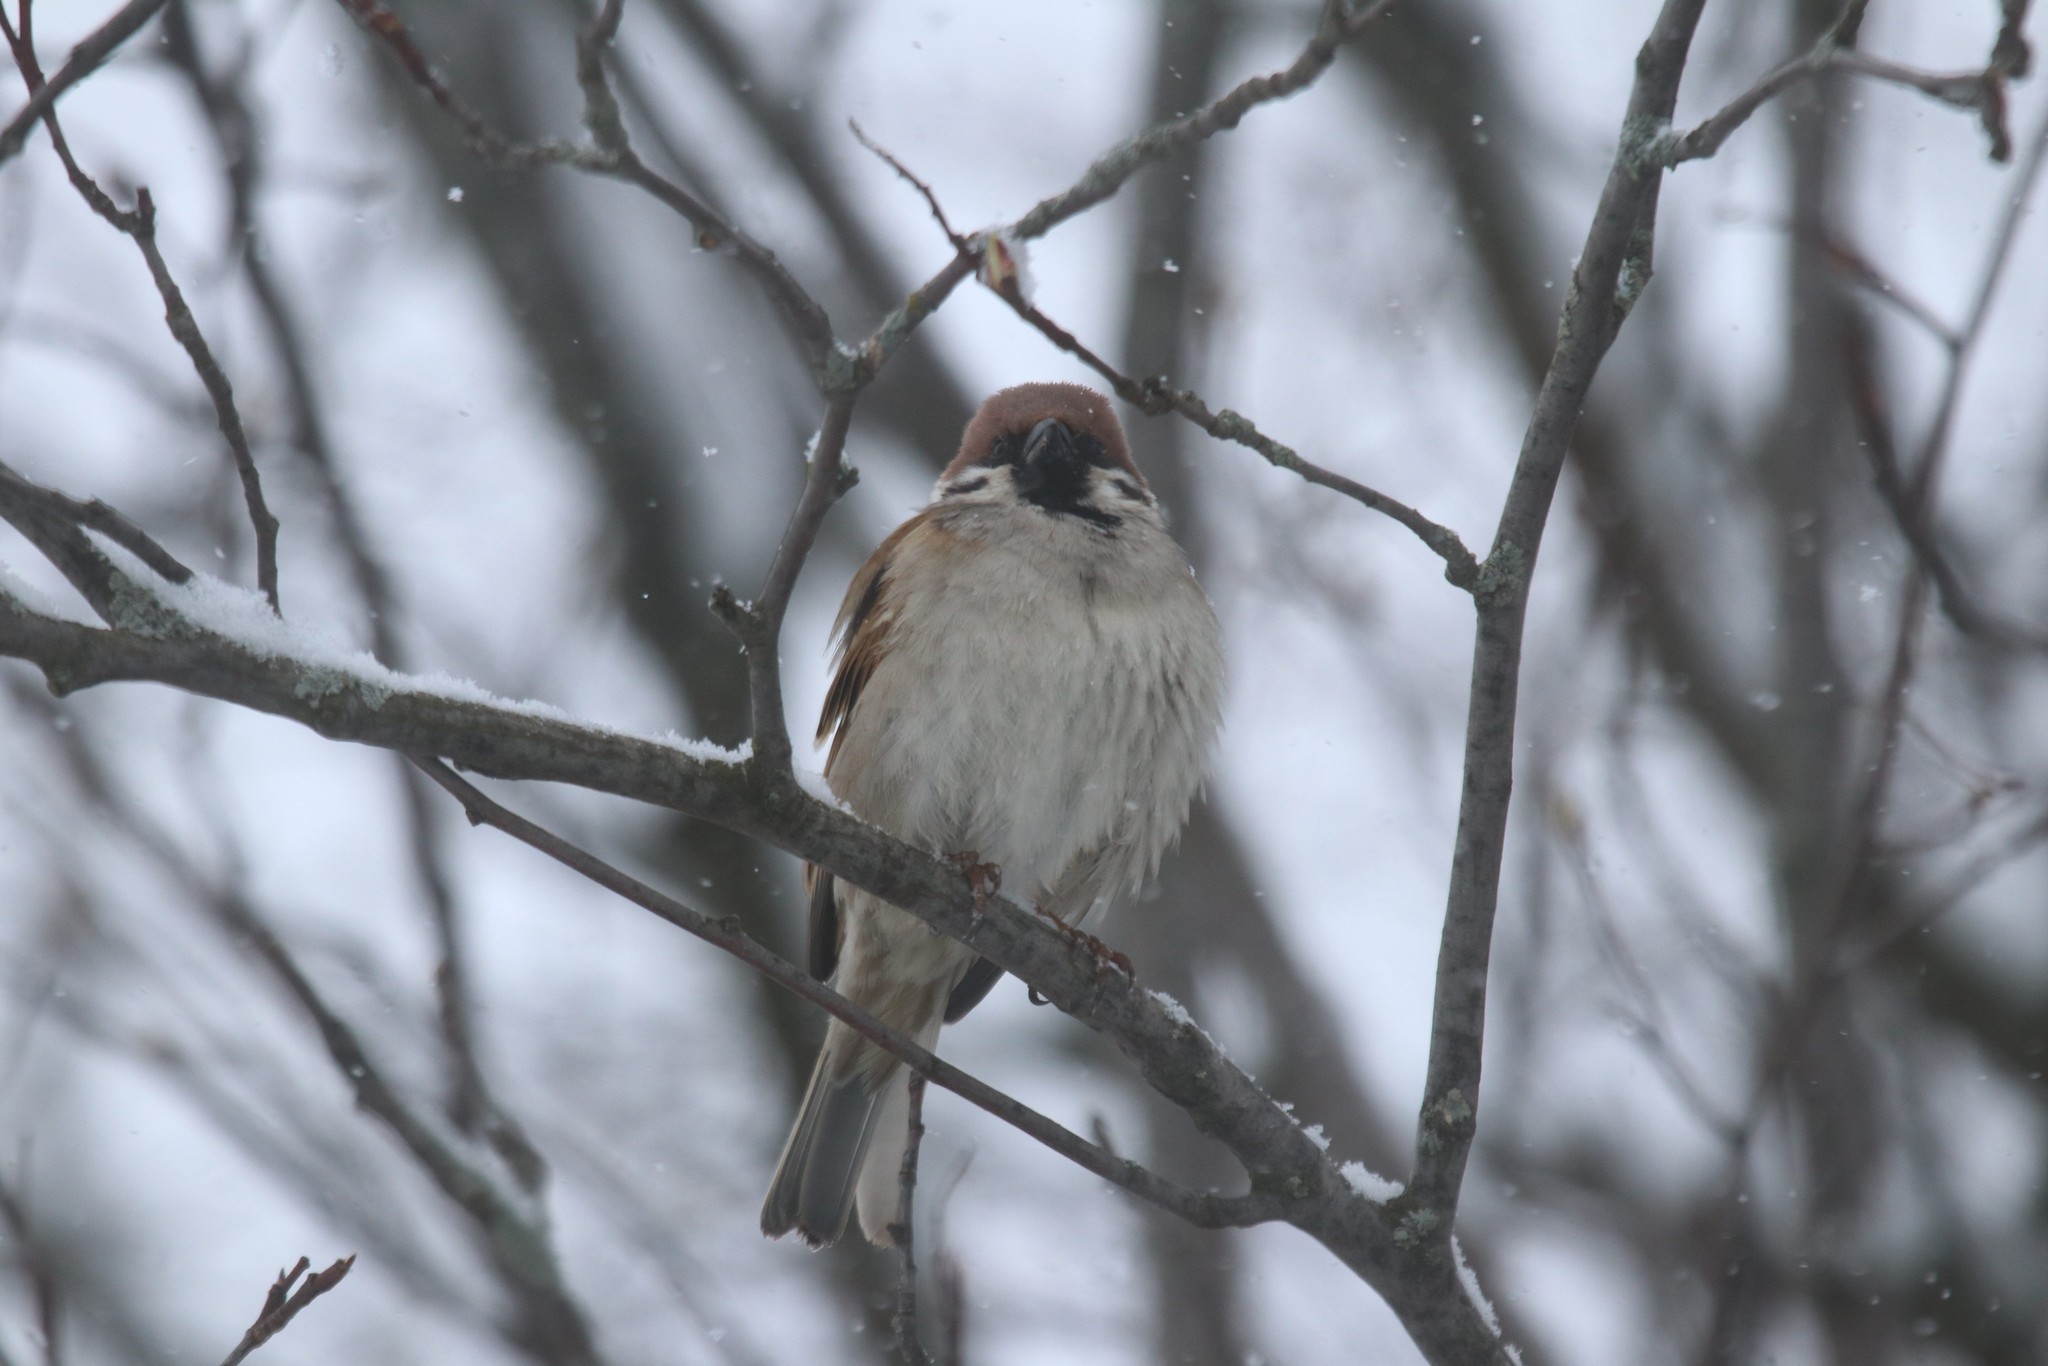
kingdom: Animalia
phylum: Chordata
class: Aves
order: Passeriformes
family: Passeridae
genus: Passer
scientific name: Passer montanus
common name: Eurasian tree sparrow
